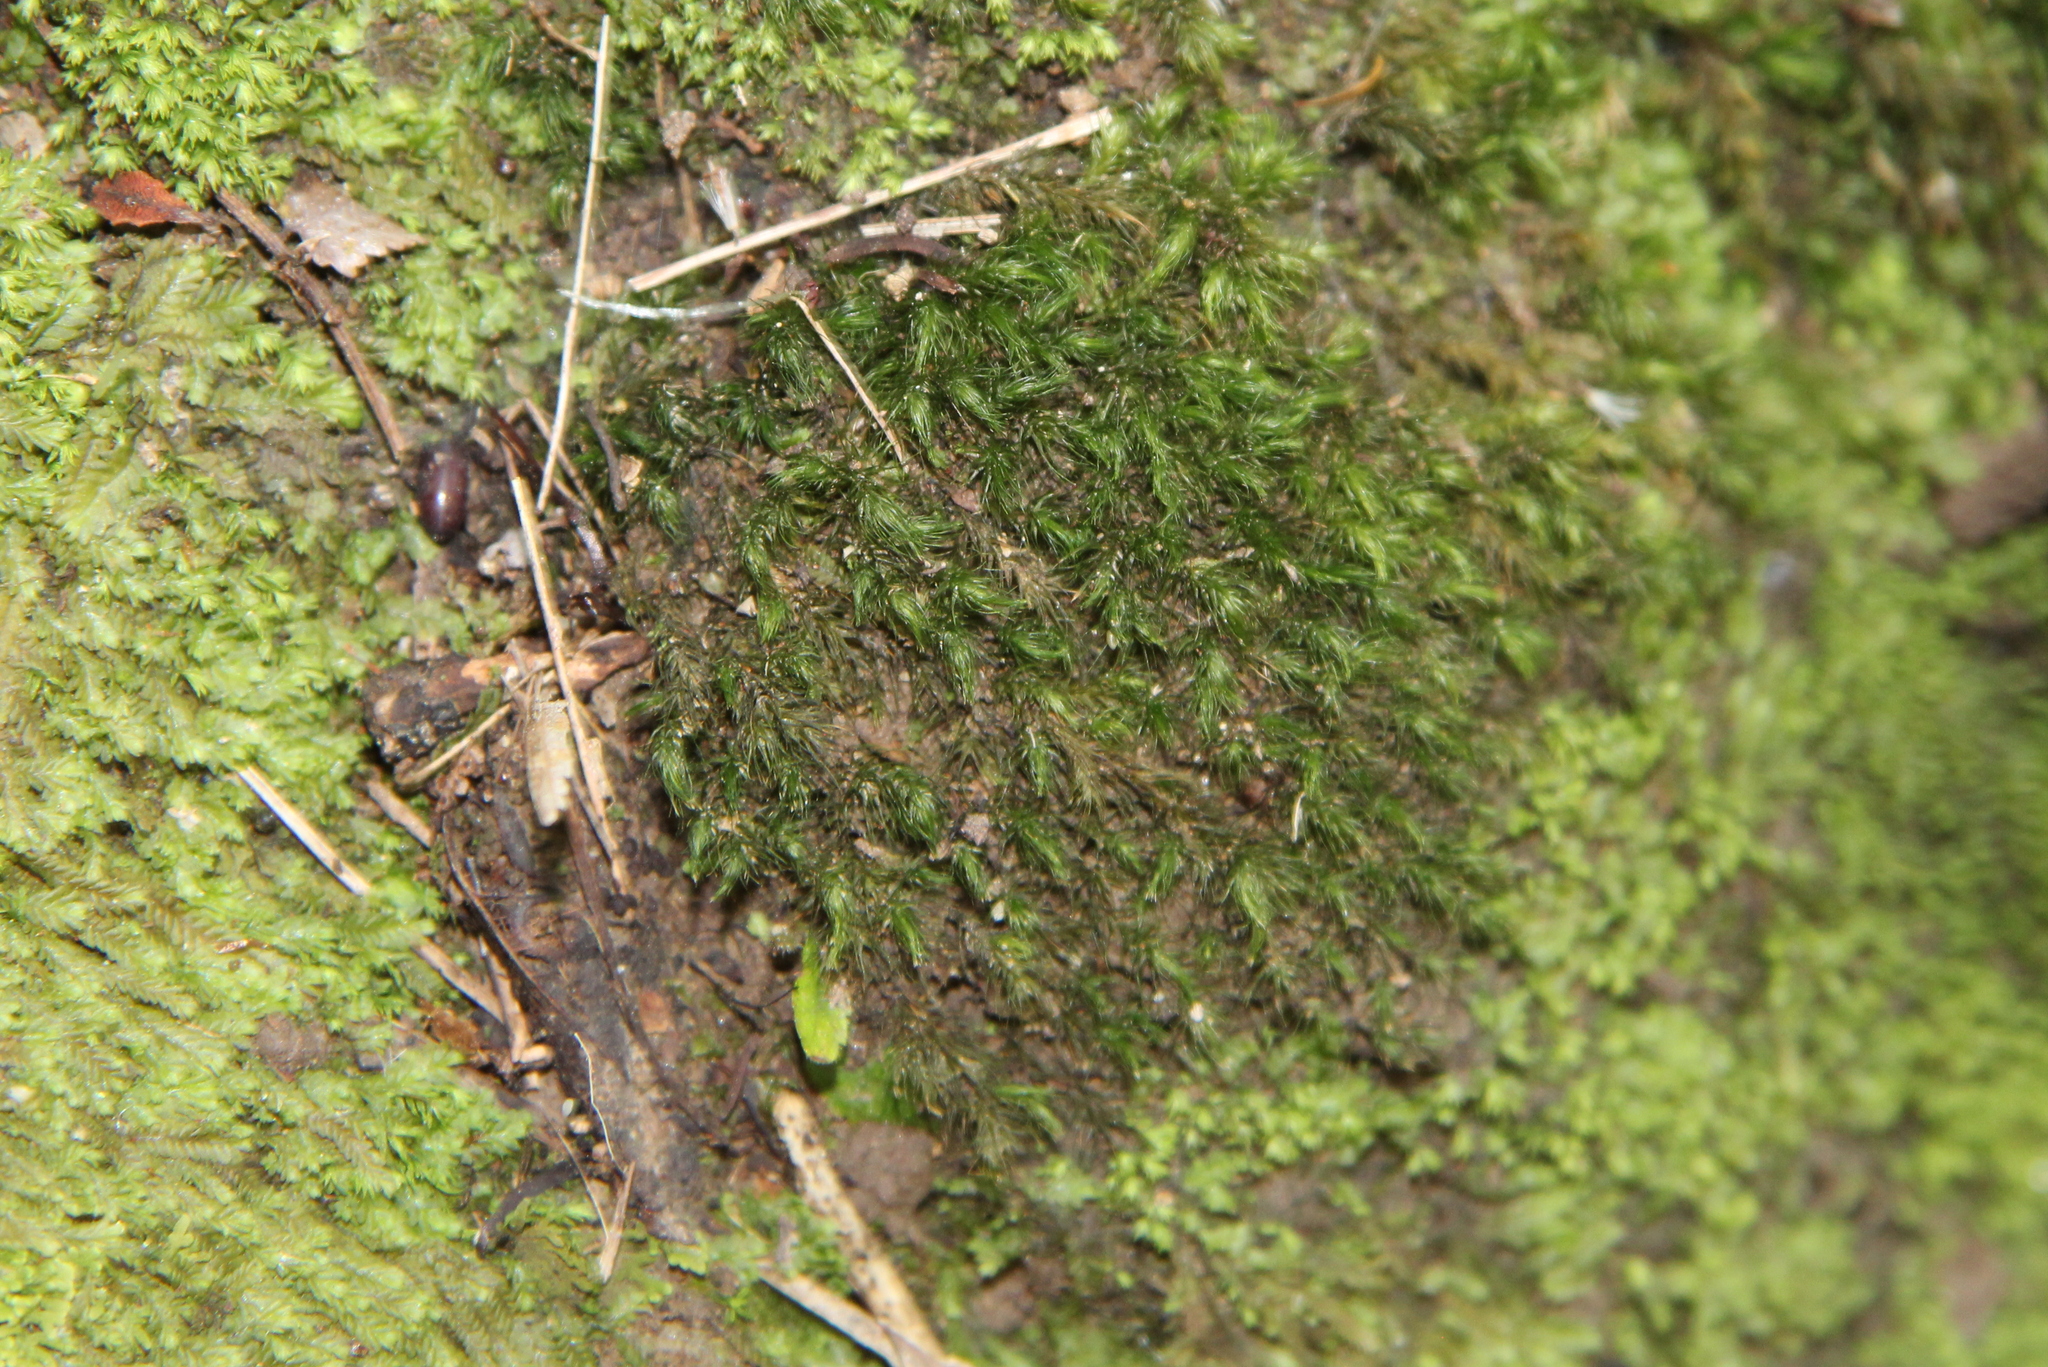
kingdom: Plantae
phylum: Bryophyta
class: Bryopsida
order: Hypnales
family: Neckeraceae
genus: Echinodiopsis
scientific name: Echinodiopsis hispida
